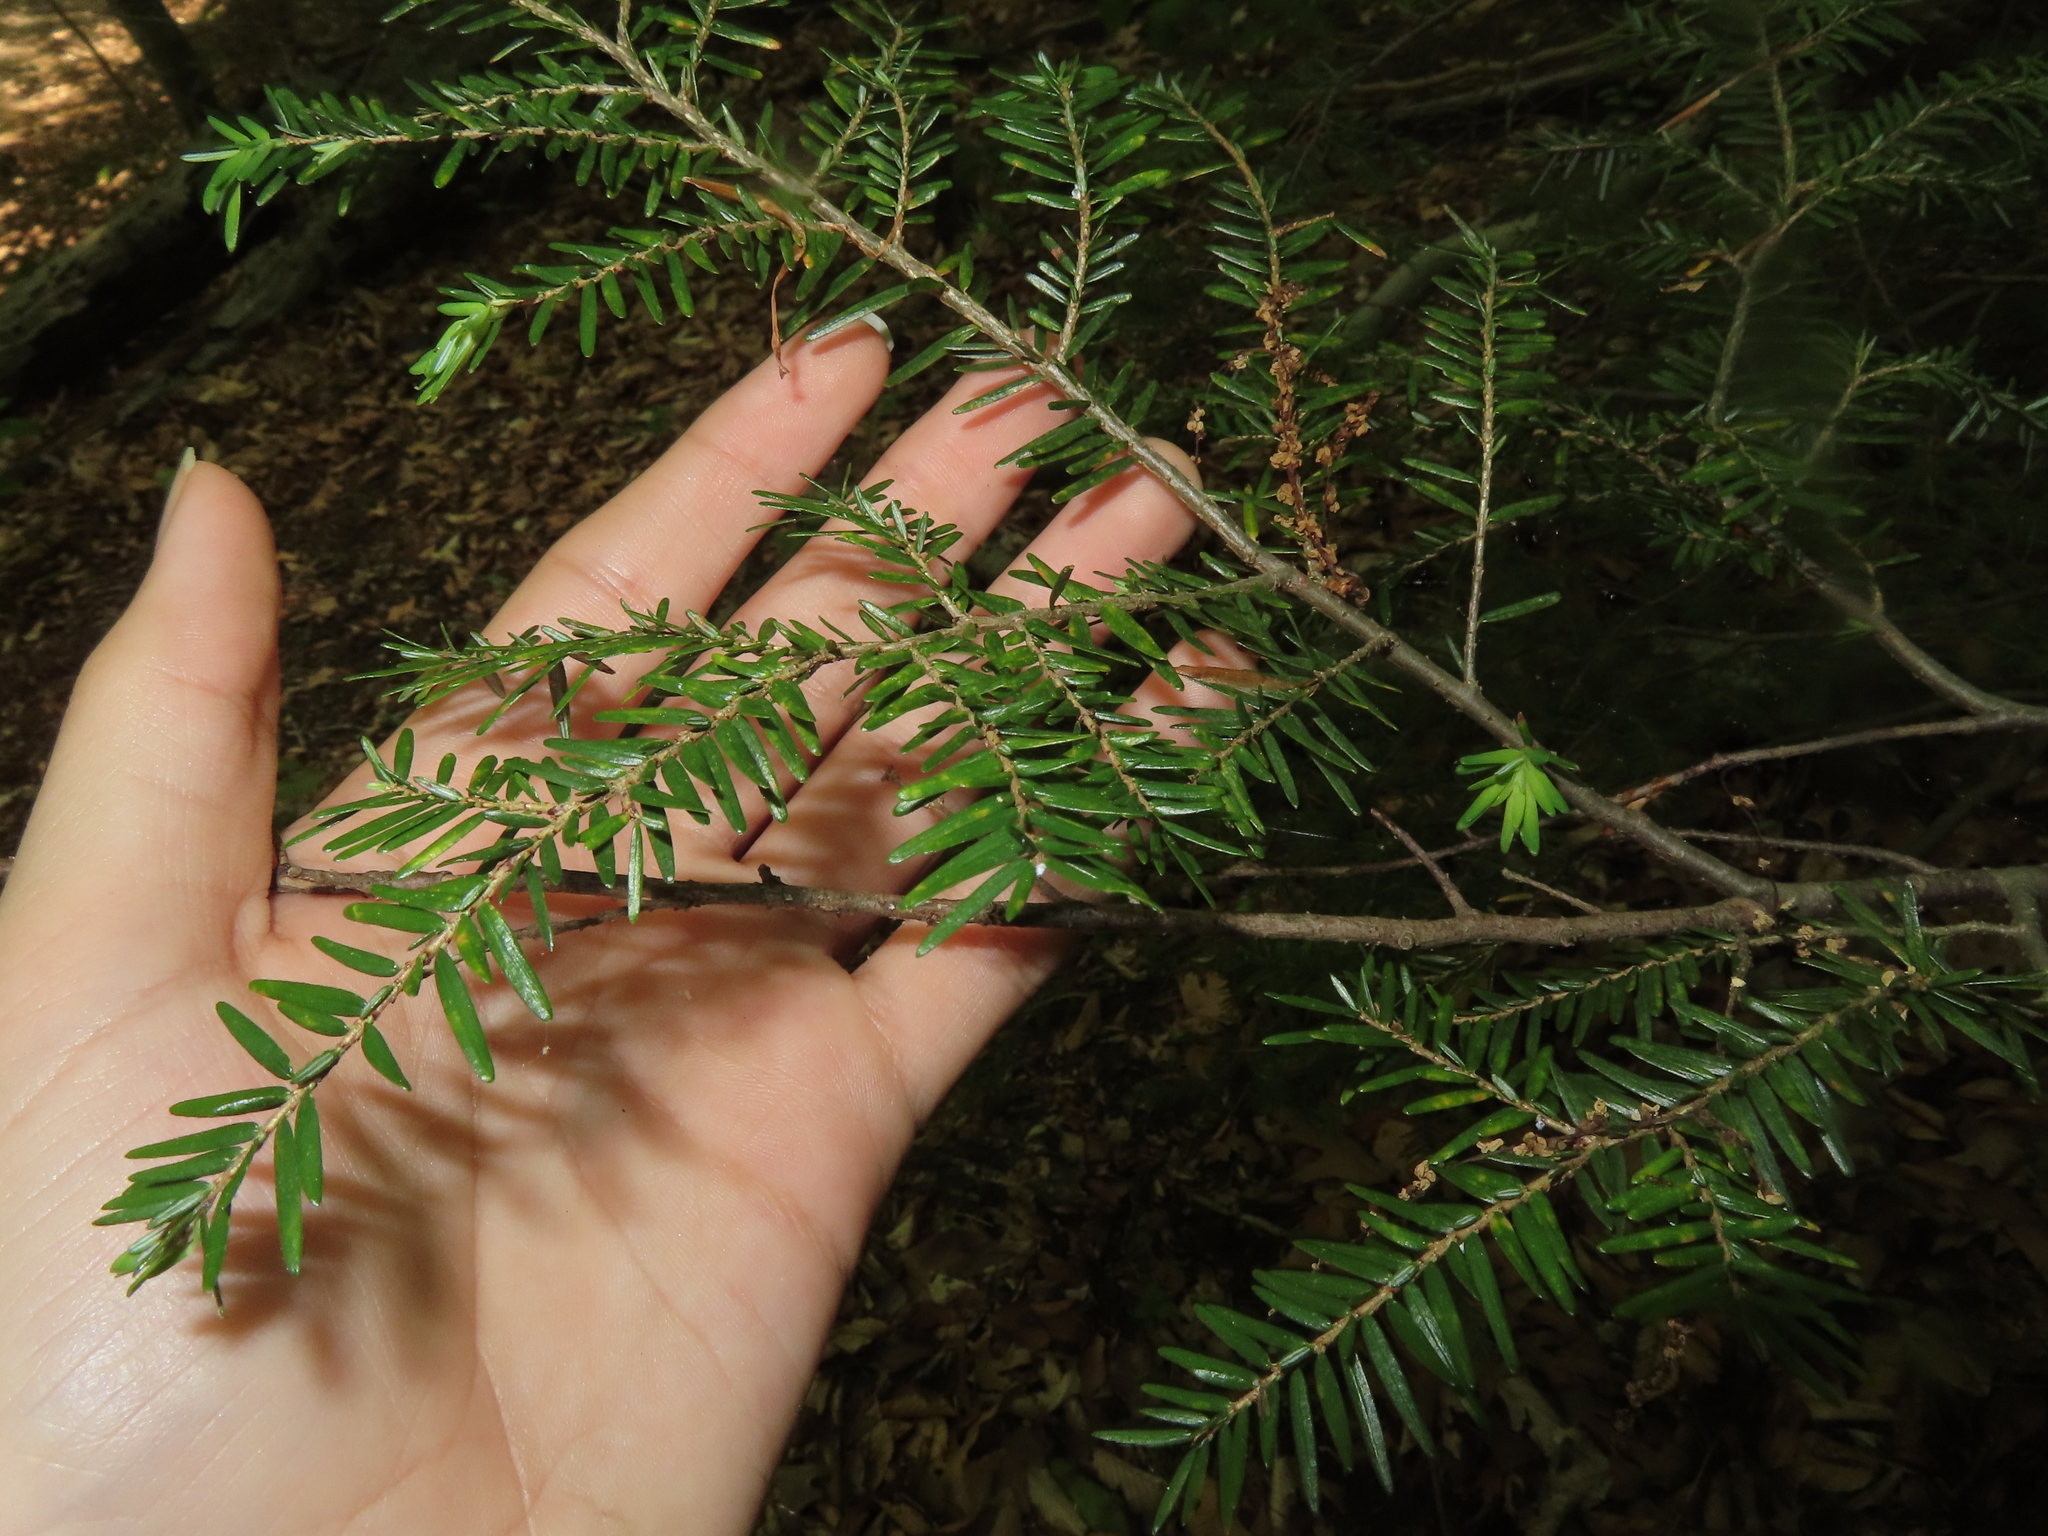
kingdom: Plantae
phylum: Tracheophyta
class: Pinopsida
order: Pinales
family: Pinaceae
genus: Tsuga
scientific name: Tsuga canadensis
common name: Eastern hemlock
